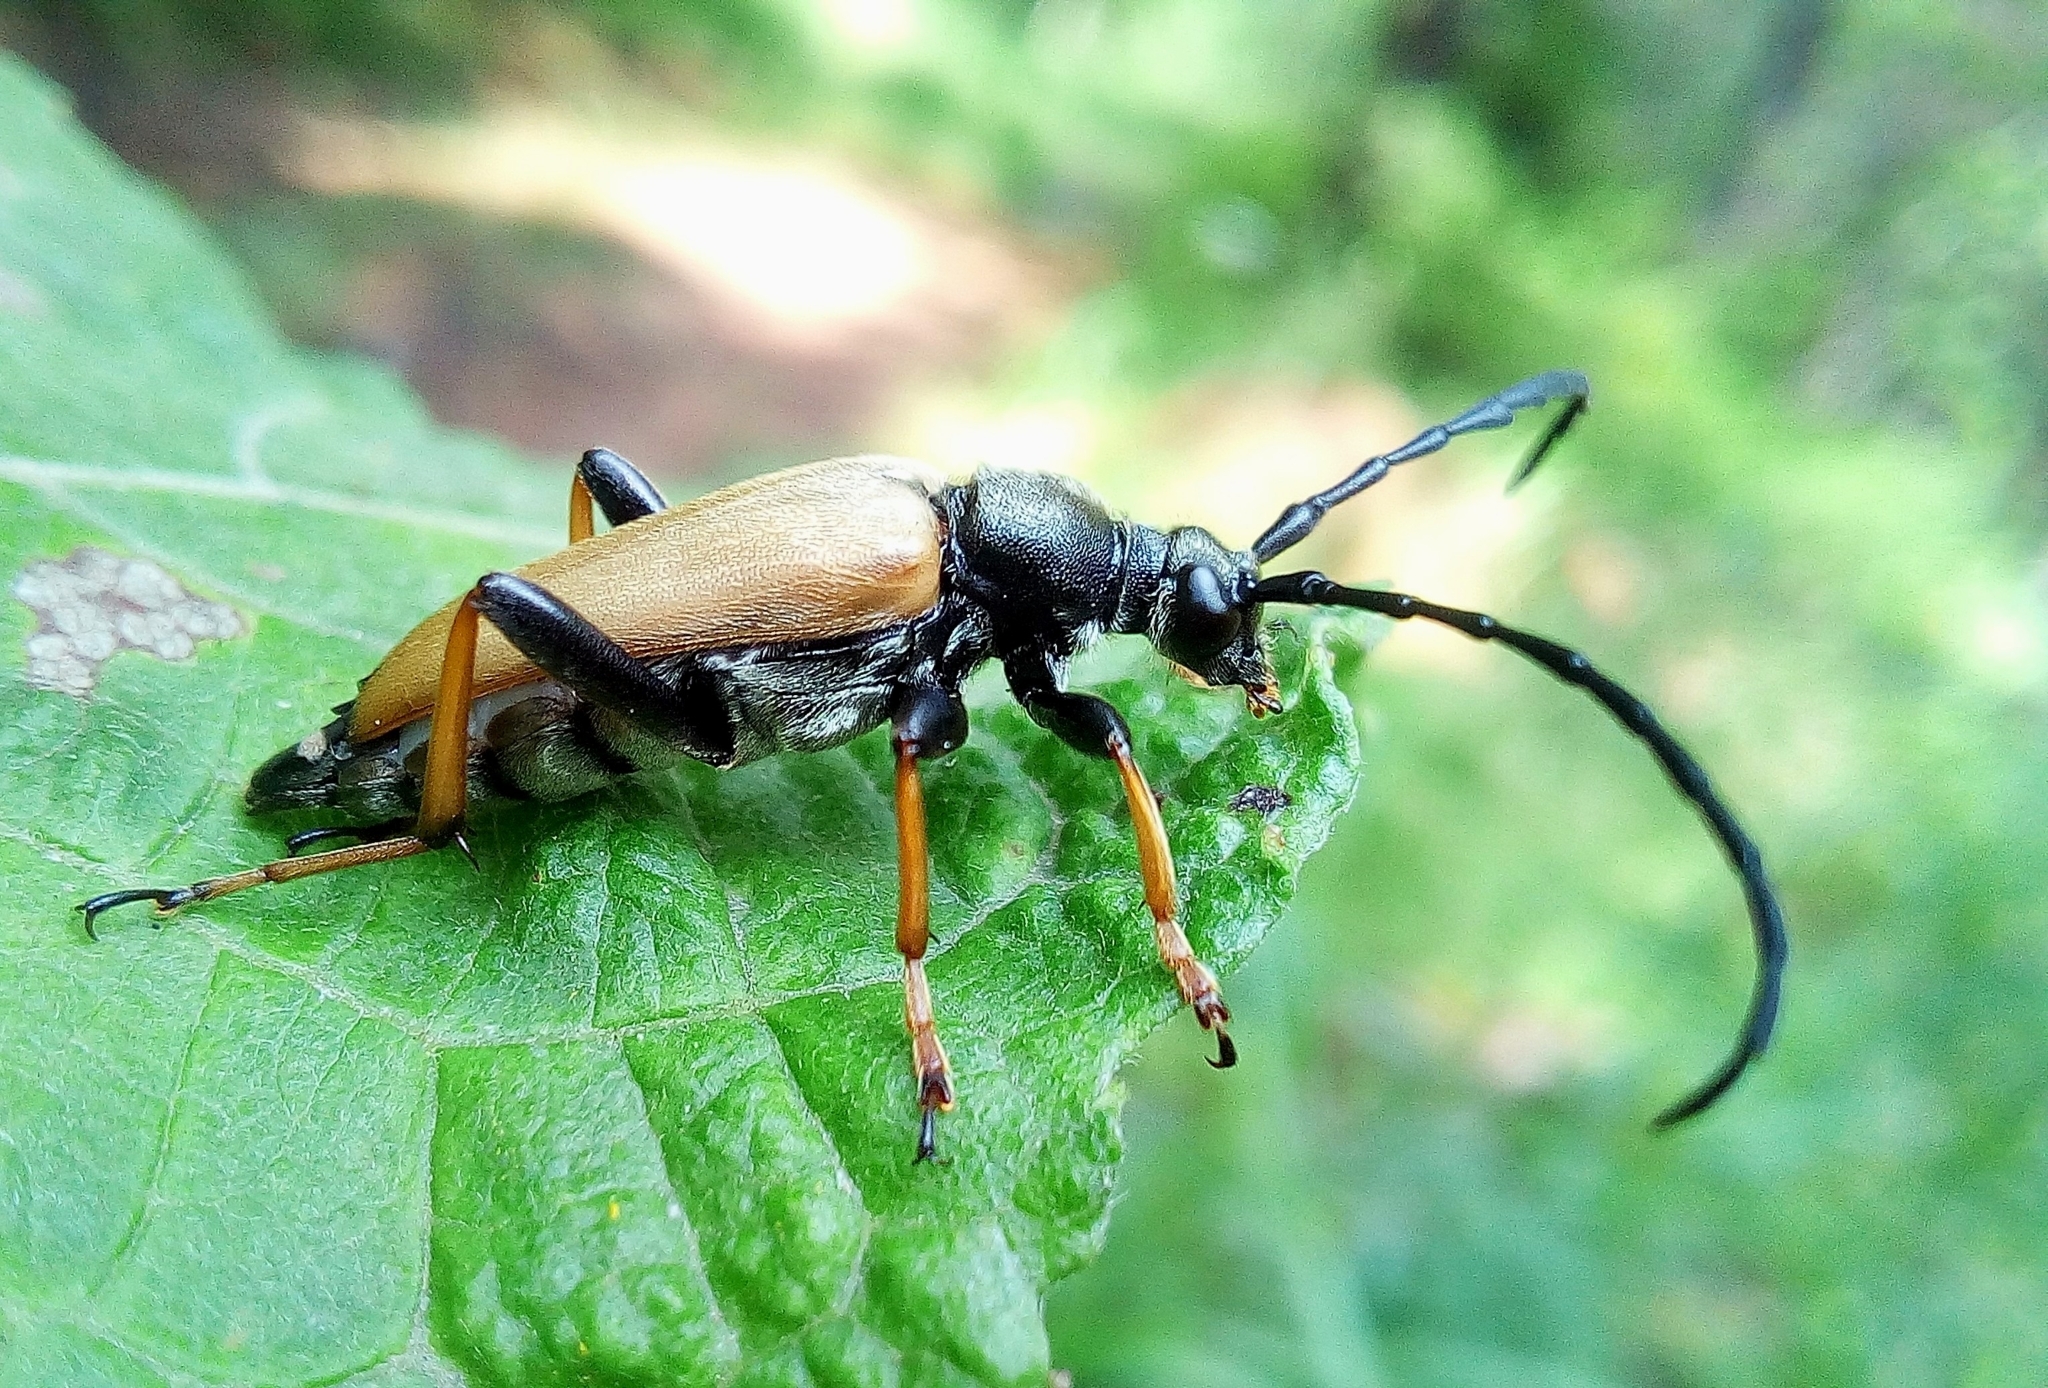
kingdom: Animalia
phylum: Arthropoda
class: Insecta
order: Coleoptera
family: Cerambycidae
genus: Stictoleptura
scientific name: Stictoleptura rubra
